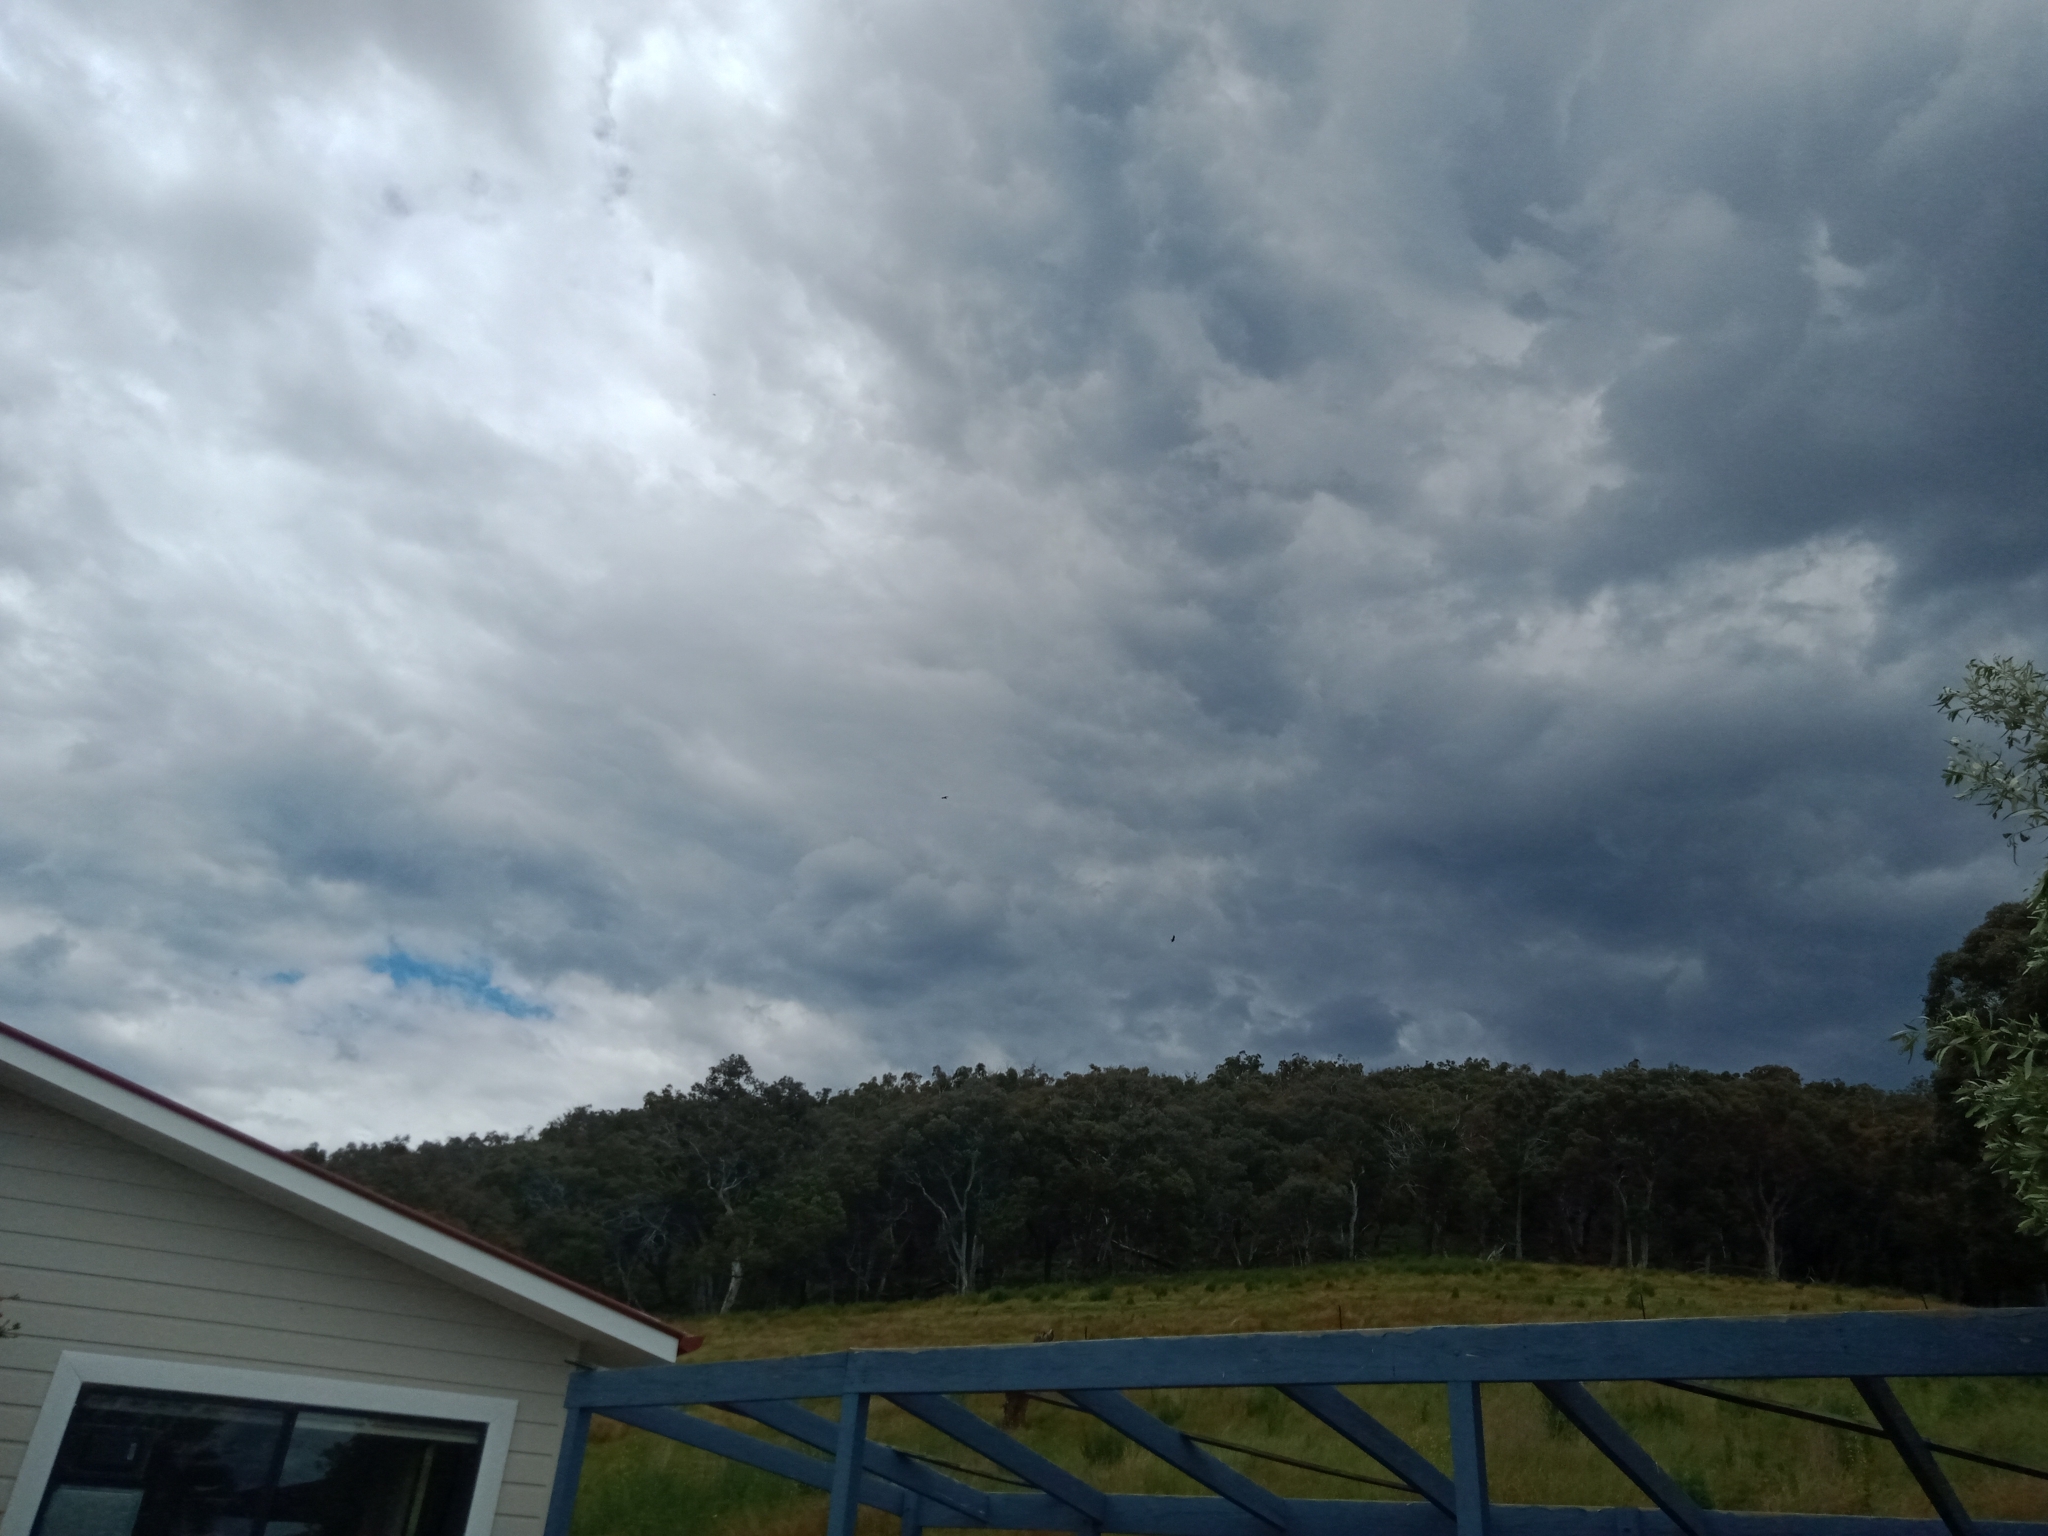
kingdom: Animalia
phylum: Chordata
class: Aves
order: Accipitriformes
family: Accipitridae
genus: Aquila
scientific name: Aquila audax
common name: Wedge-tailed eagle
